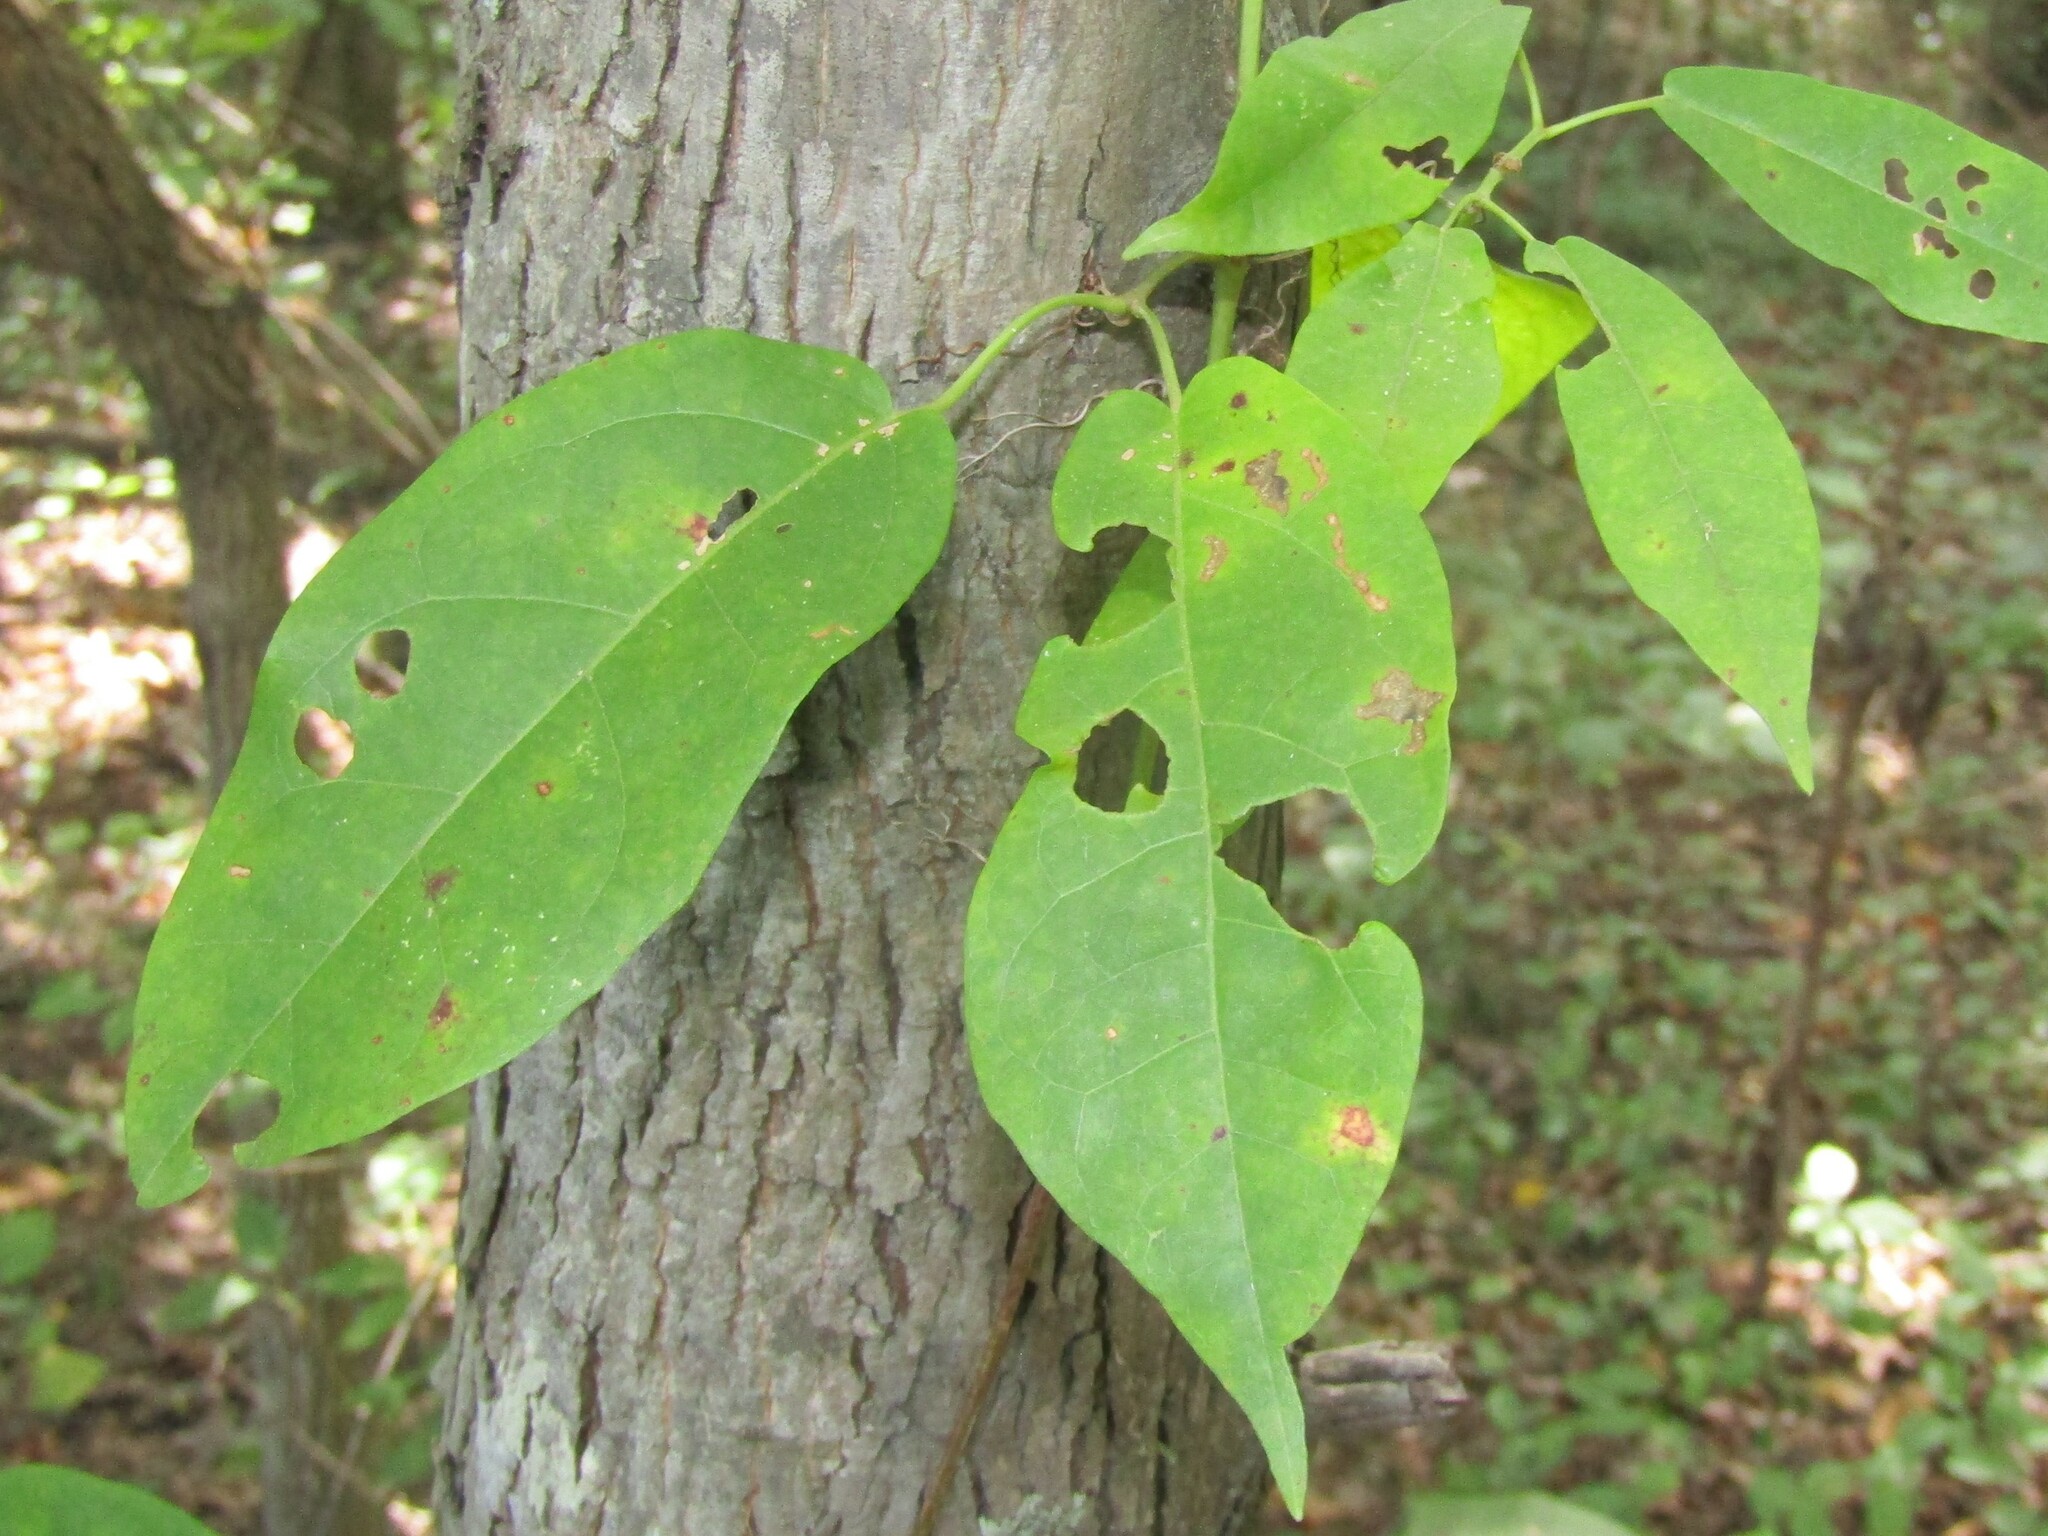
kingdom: Plantae
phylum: Tracheophyta
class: Magnoliopsida
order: Lamiales
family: Bignoniaceae
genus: Bignonia
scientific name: Bignonia capreolata
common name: Crossvine
